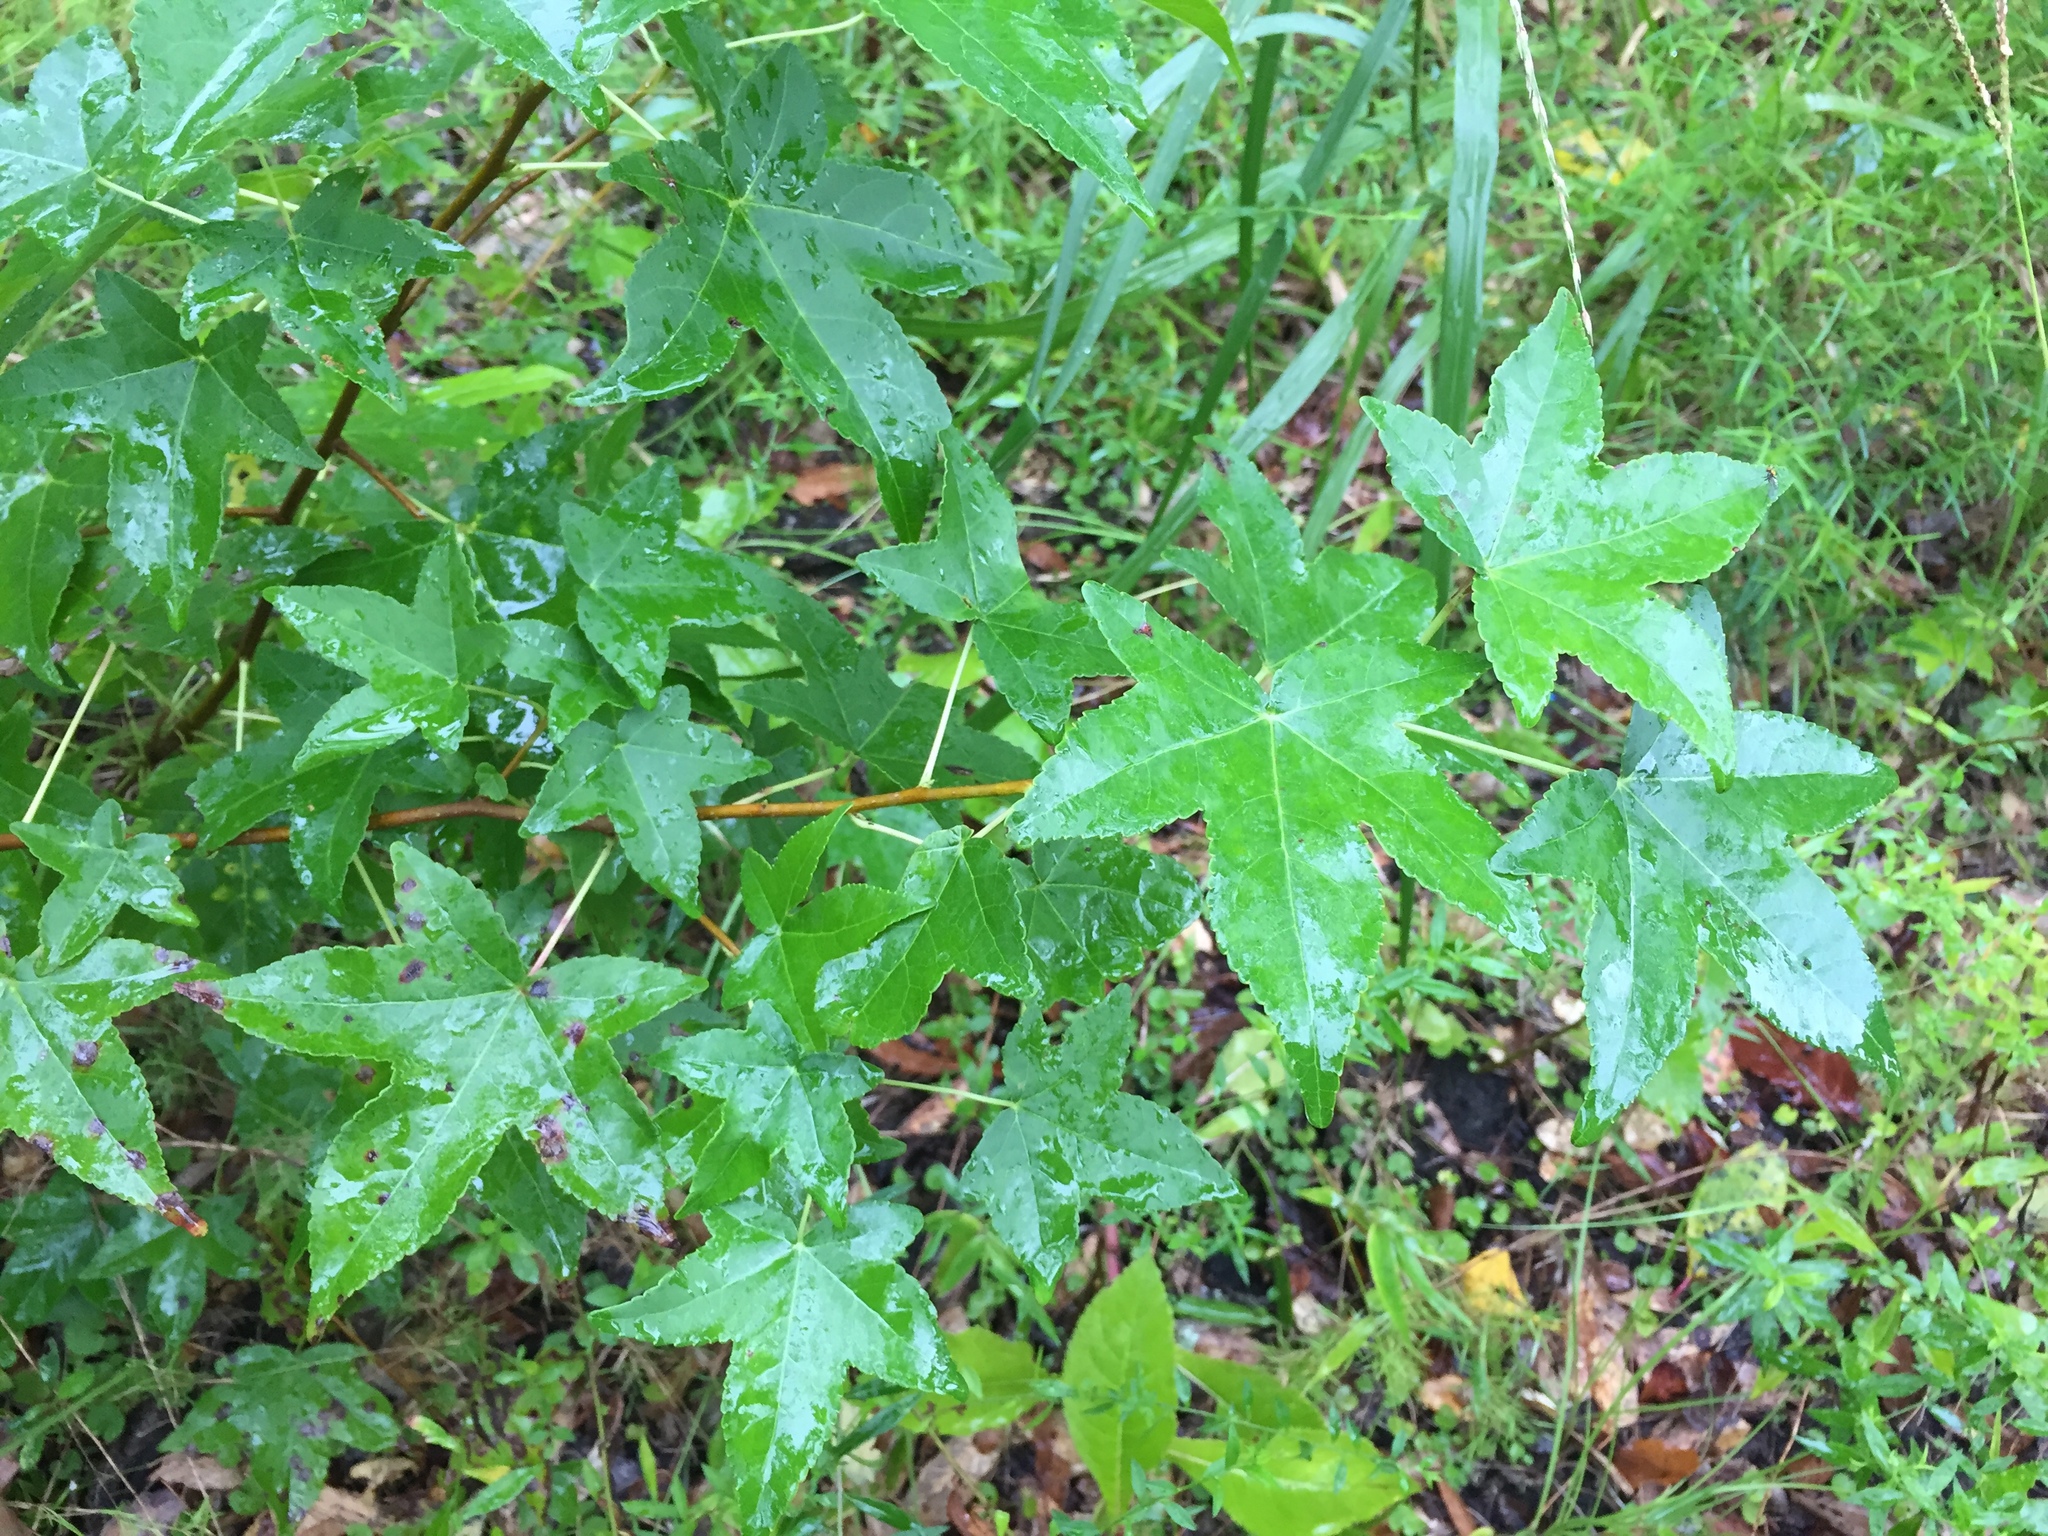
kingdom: Plantae
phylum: Tracheophyta
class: Magnoliopsida
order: Saxifragales
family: Altingiaceae
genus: Liquidambar
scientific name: Liquidambar styraciflua
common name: Sweet gum
